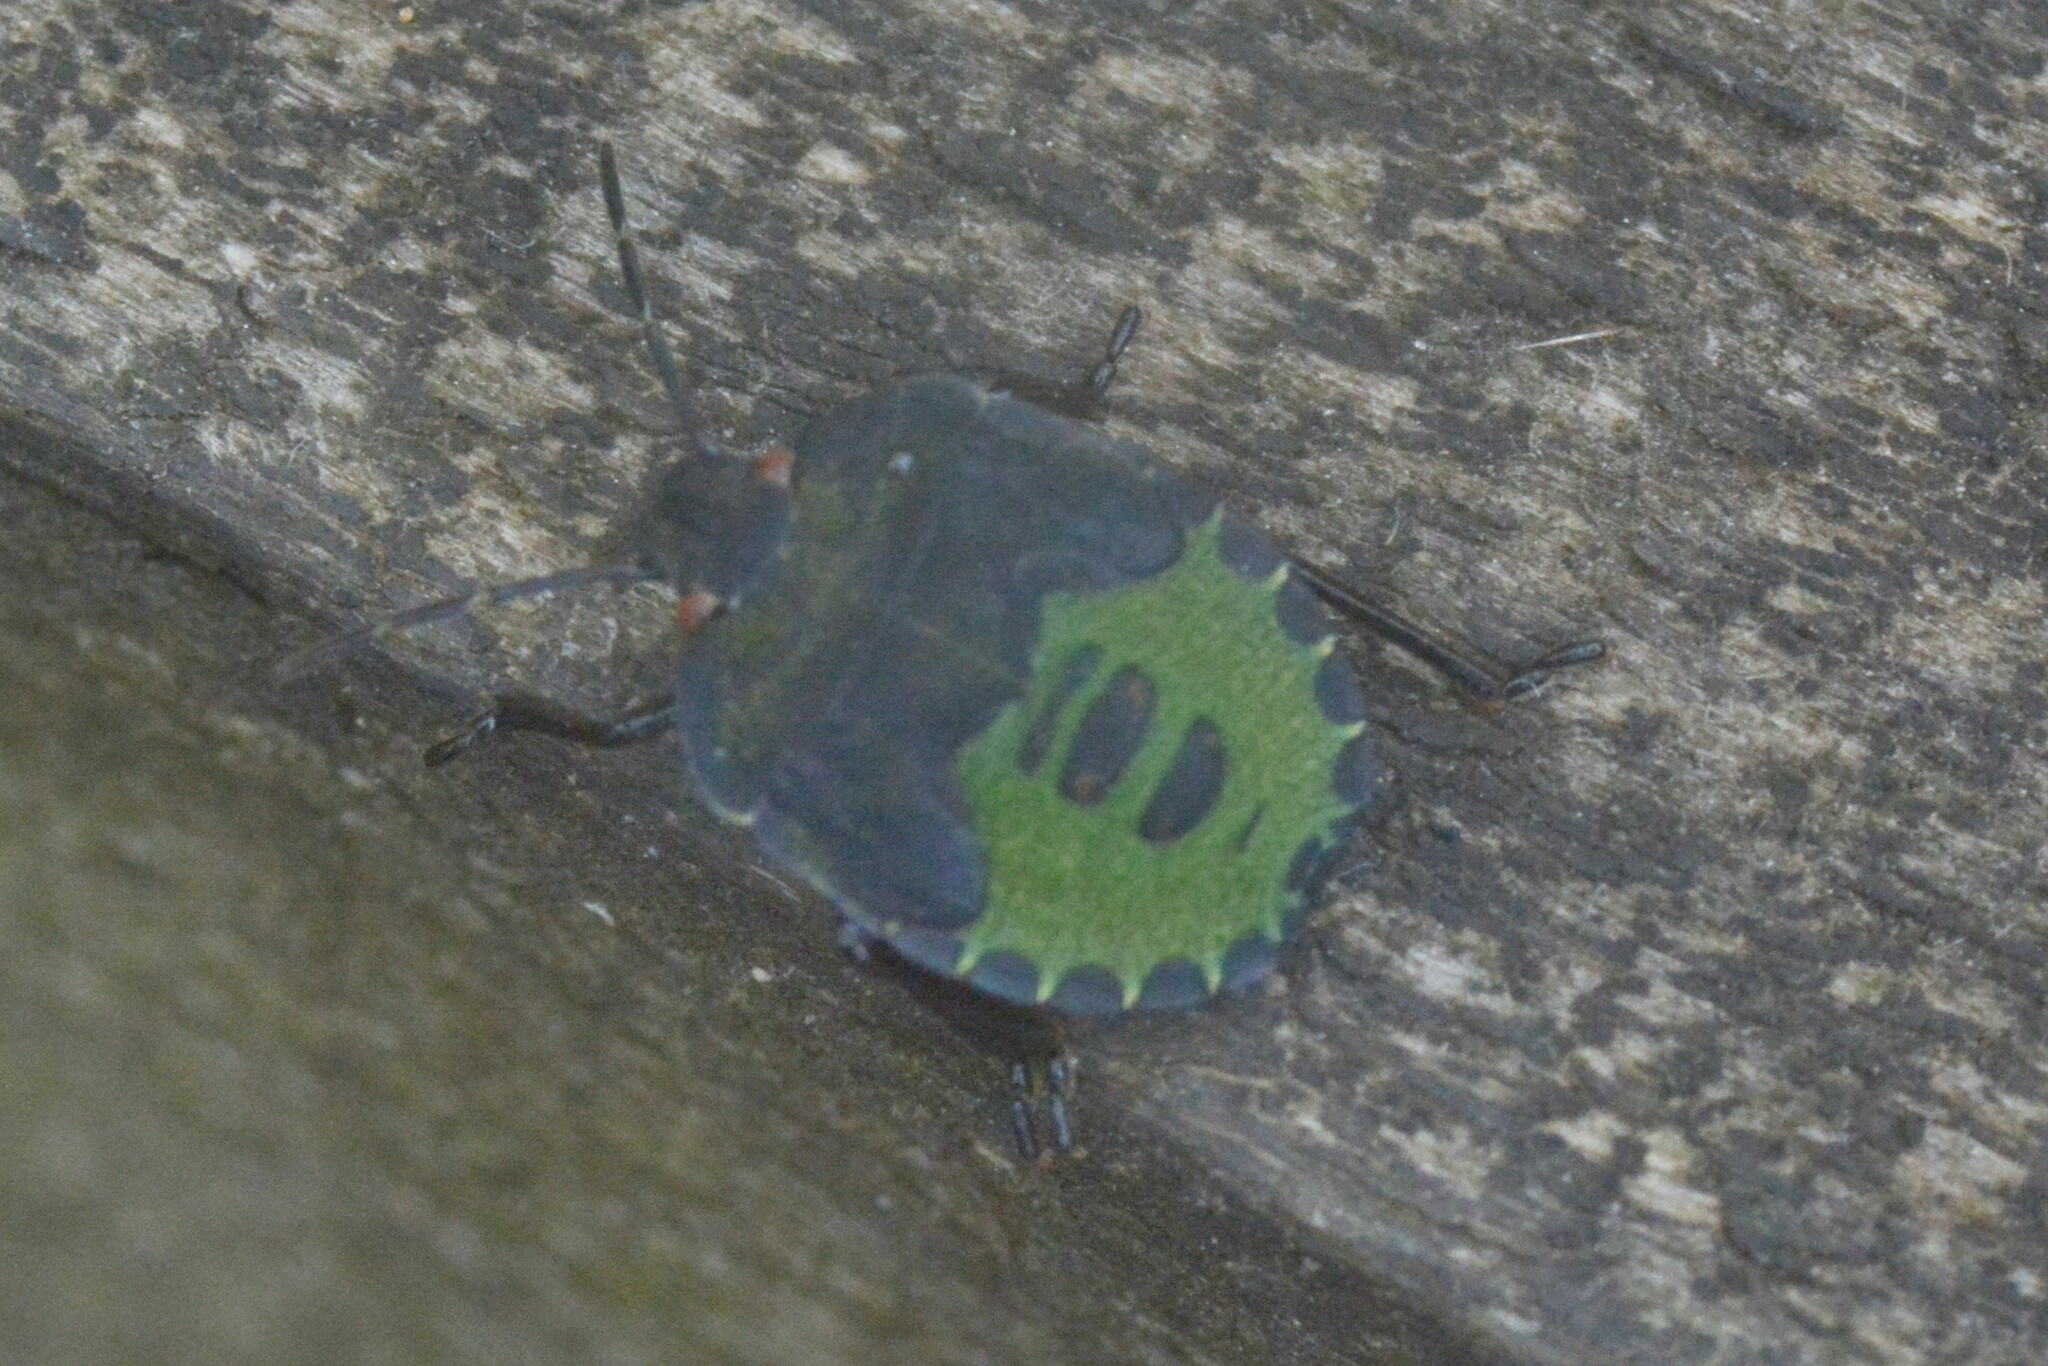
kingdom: Animalia
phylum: Arthropoda
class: Insecta
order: Hemiptera
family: Pentatomidae
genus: Palomena
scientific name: Palomena prasina
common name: Green shieldbug
